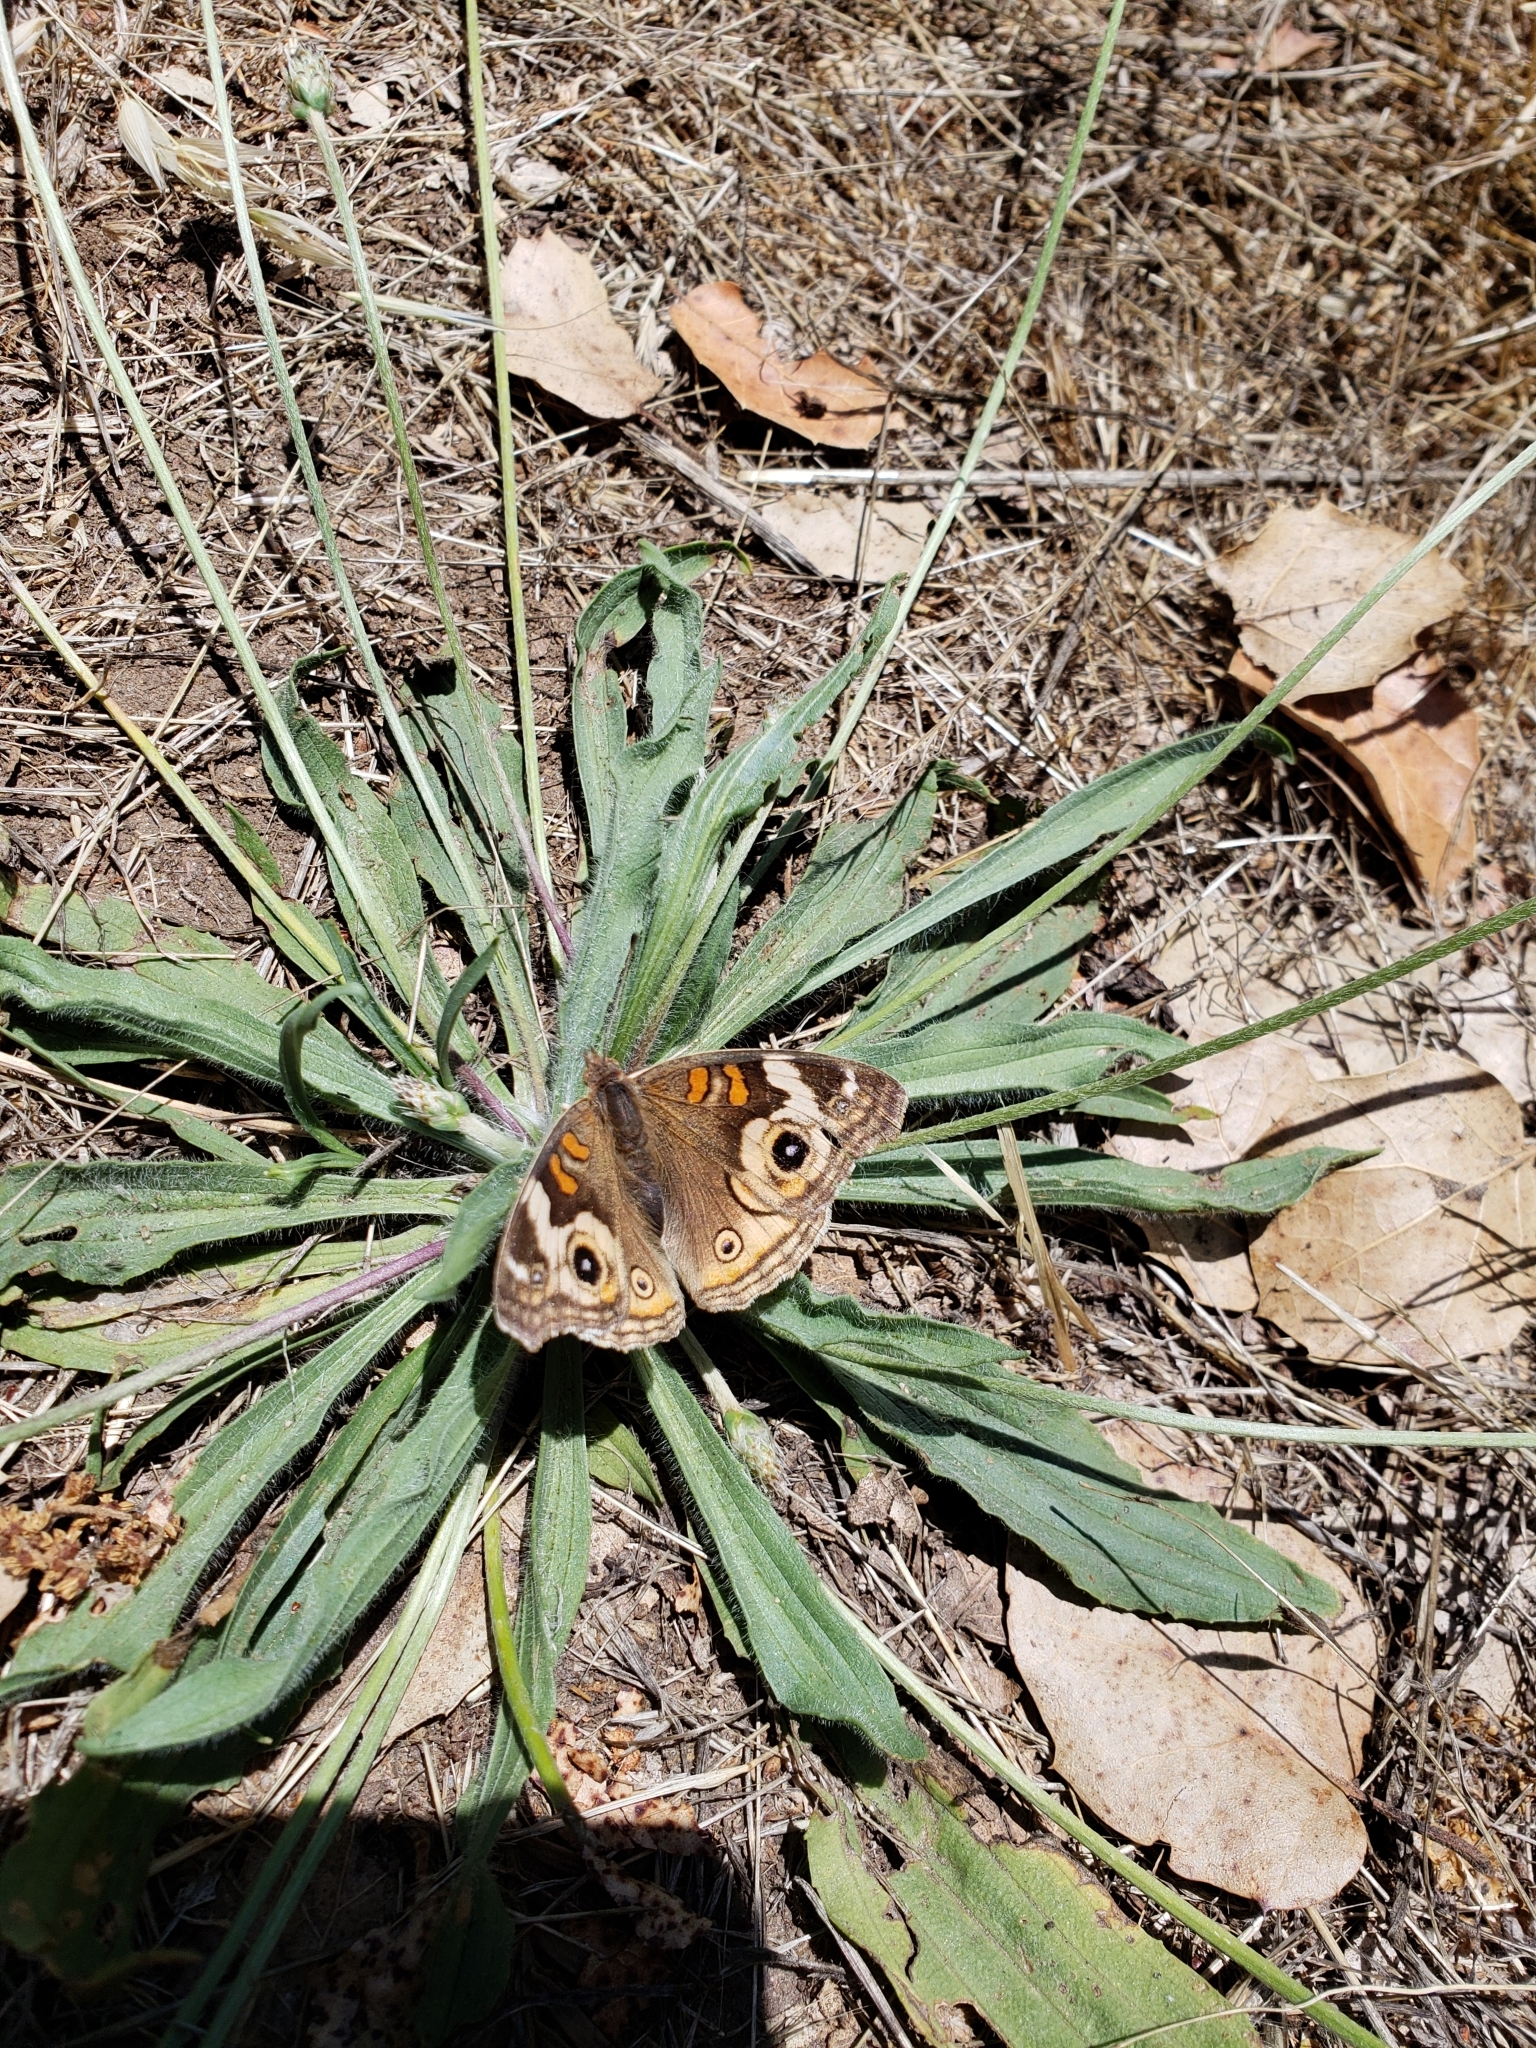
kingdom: Animalia
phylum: Arthropoda
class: Insecta
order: Lepidoptera
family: Nymphalidae
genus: Junonia
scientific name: Junonia grisea
